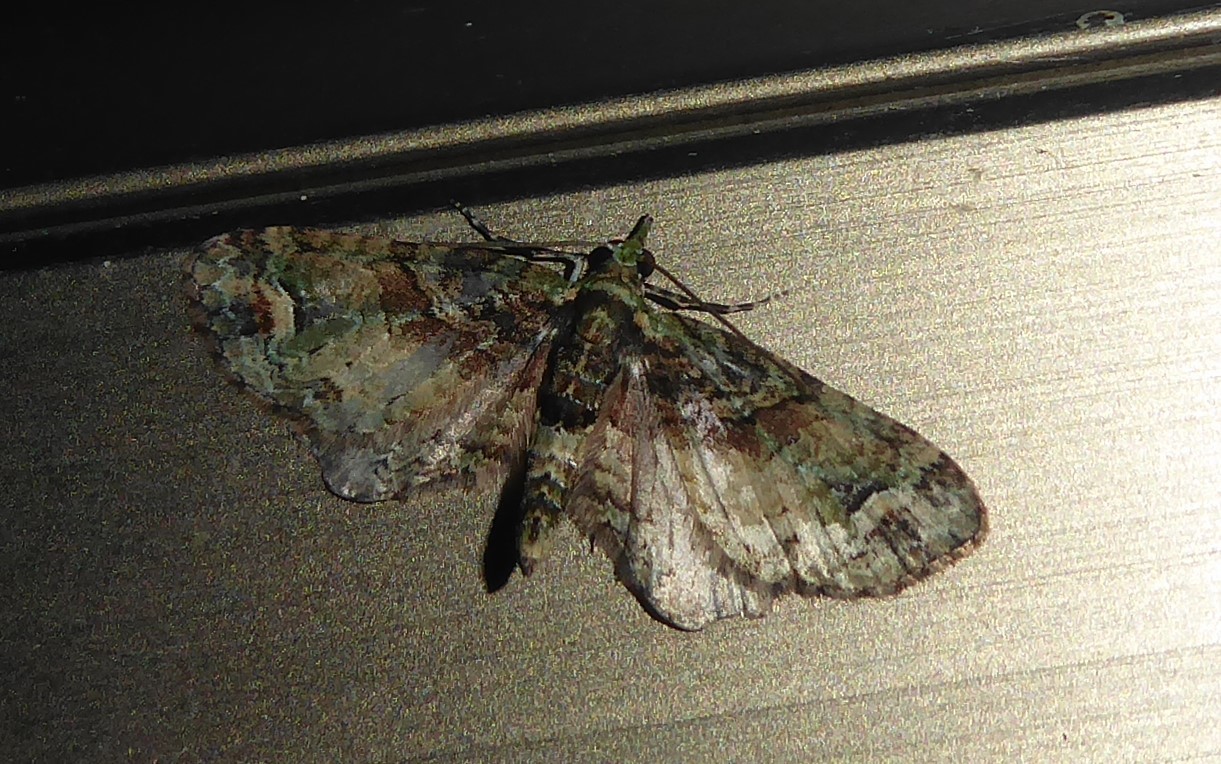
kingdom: Animalia
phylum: Arthropoda
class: Insecta
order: Lepidoptera
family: Geometridae
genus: Idaea
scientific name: Idaea mutanda
